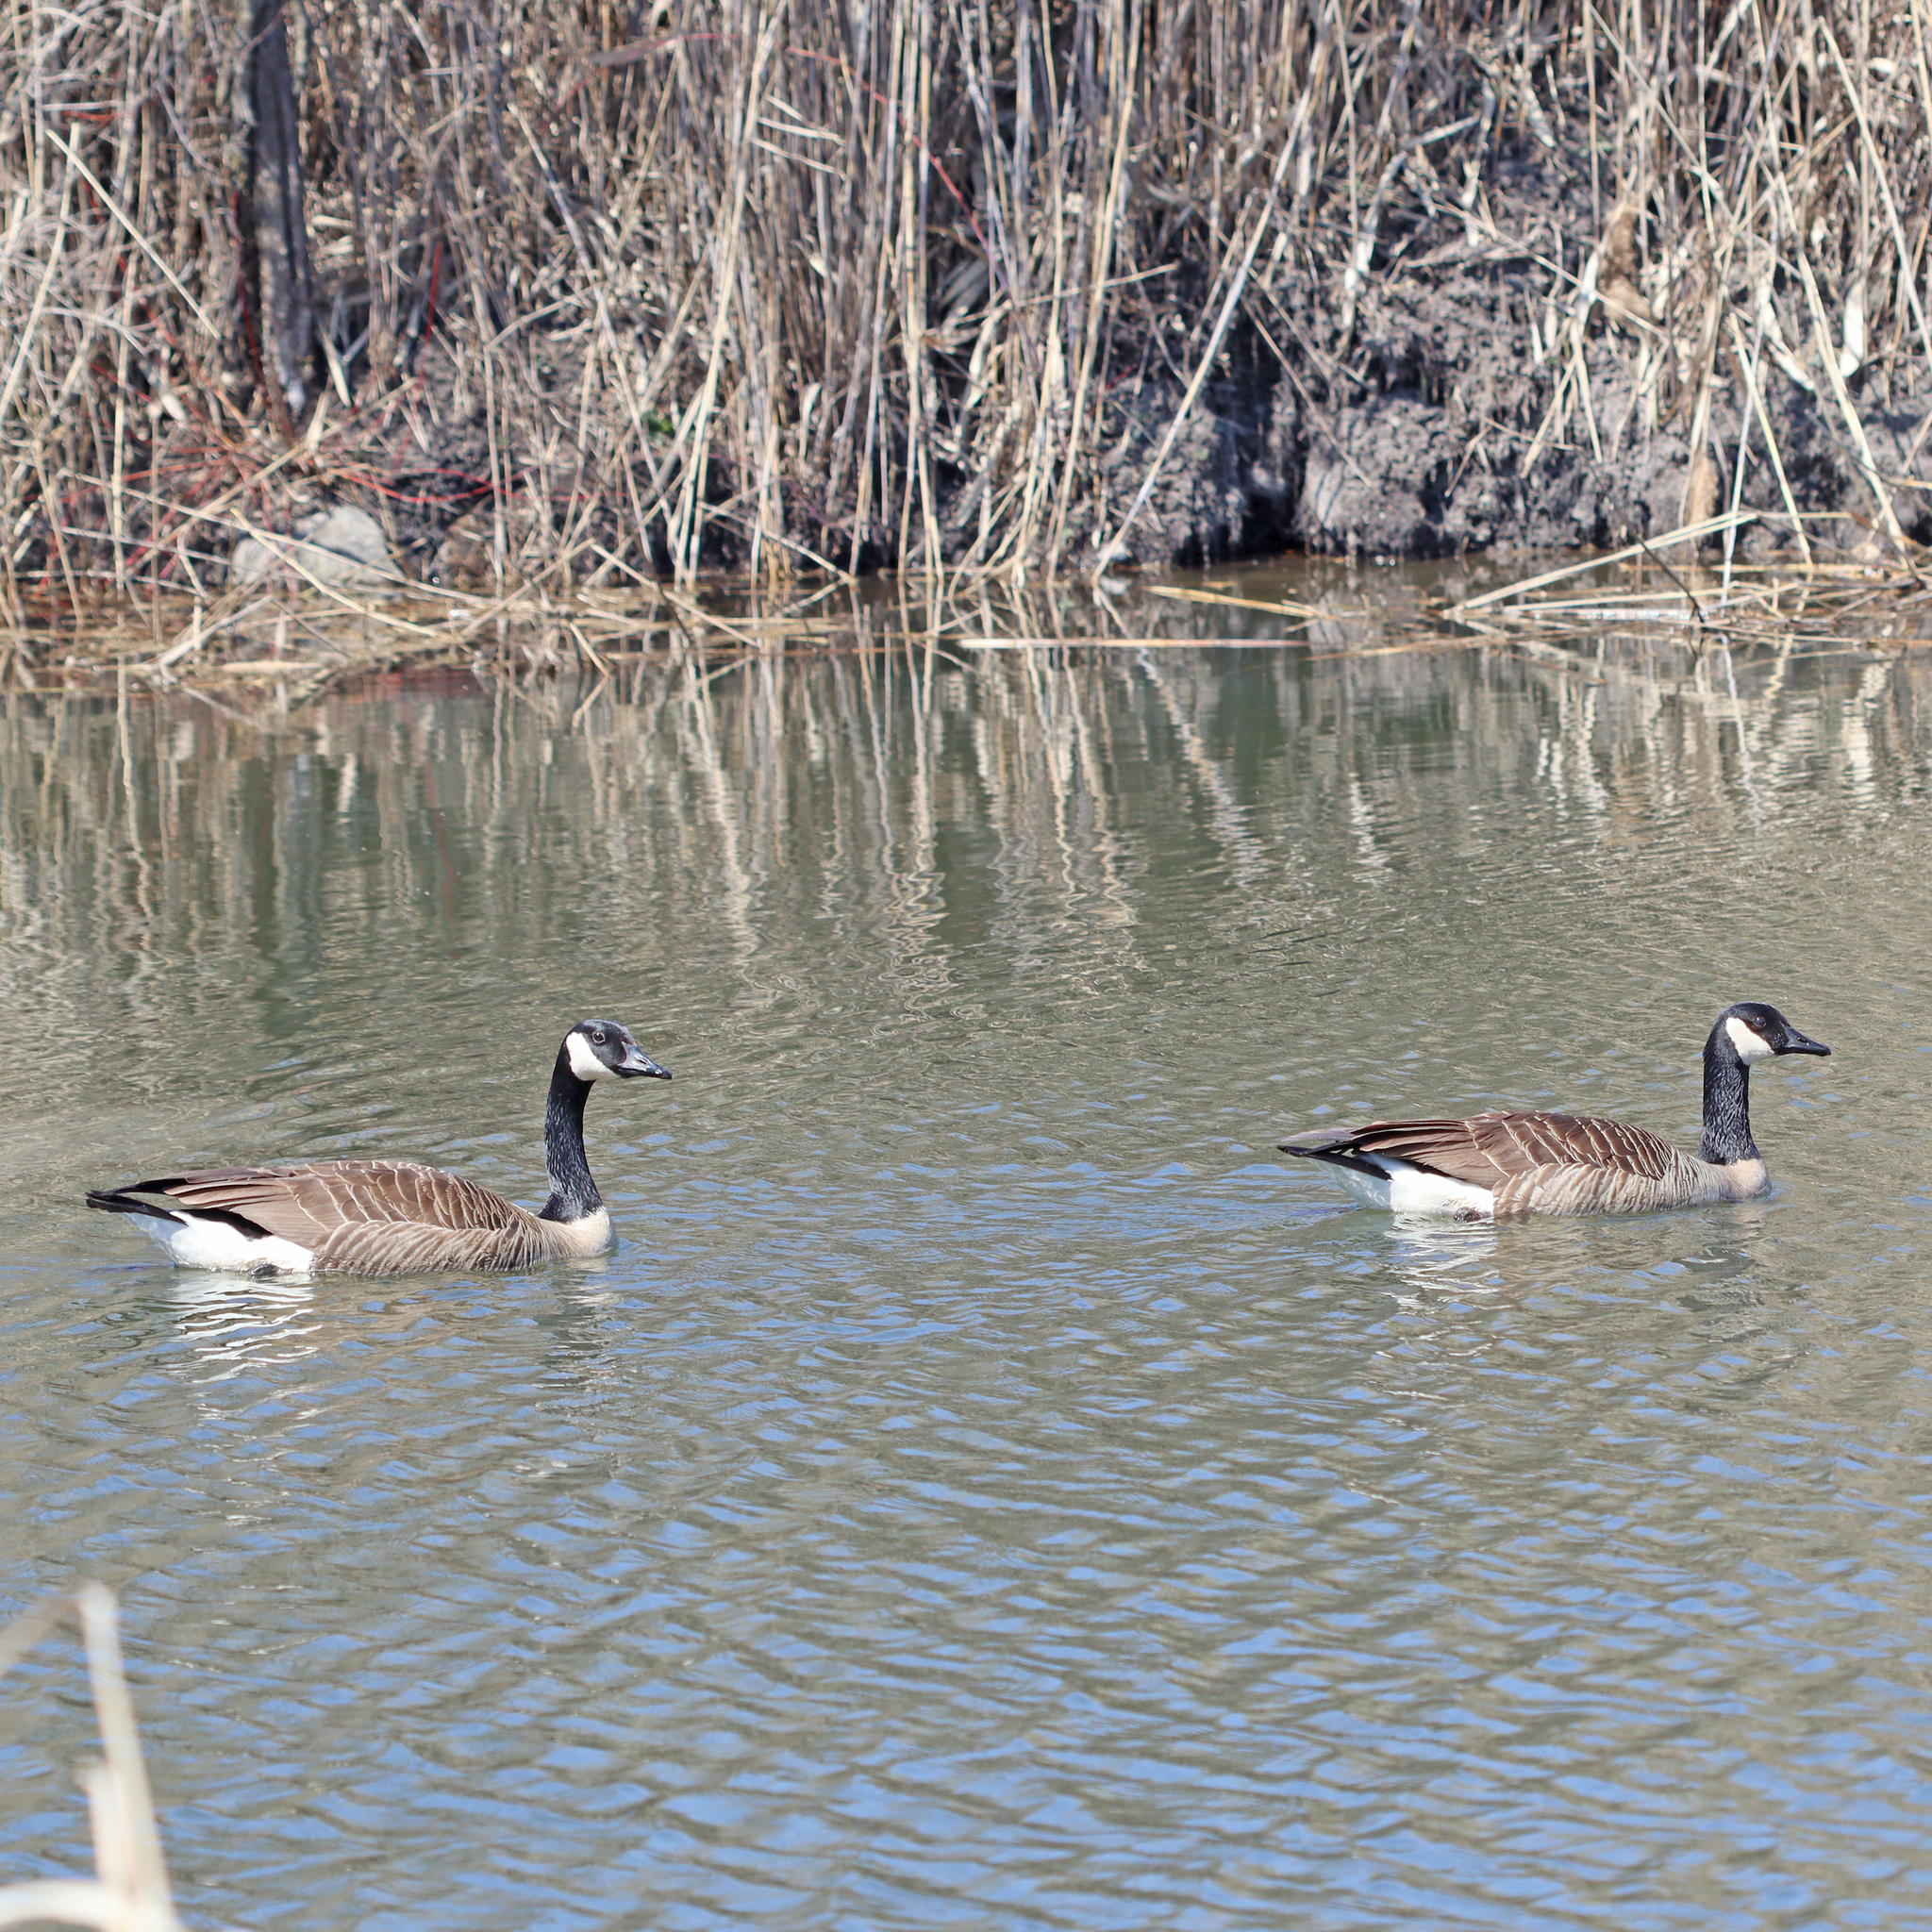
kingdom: Animalia
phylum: Chordata
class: Aves
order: Anseriformes
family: Anatidae
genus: Branta
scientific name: Branta canadensis
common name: Canada goose
